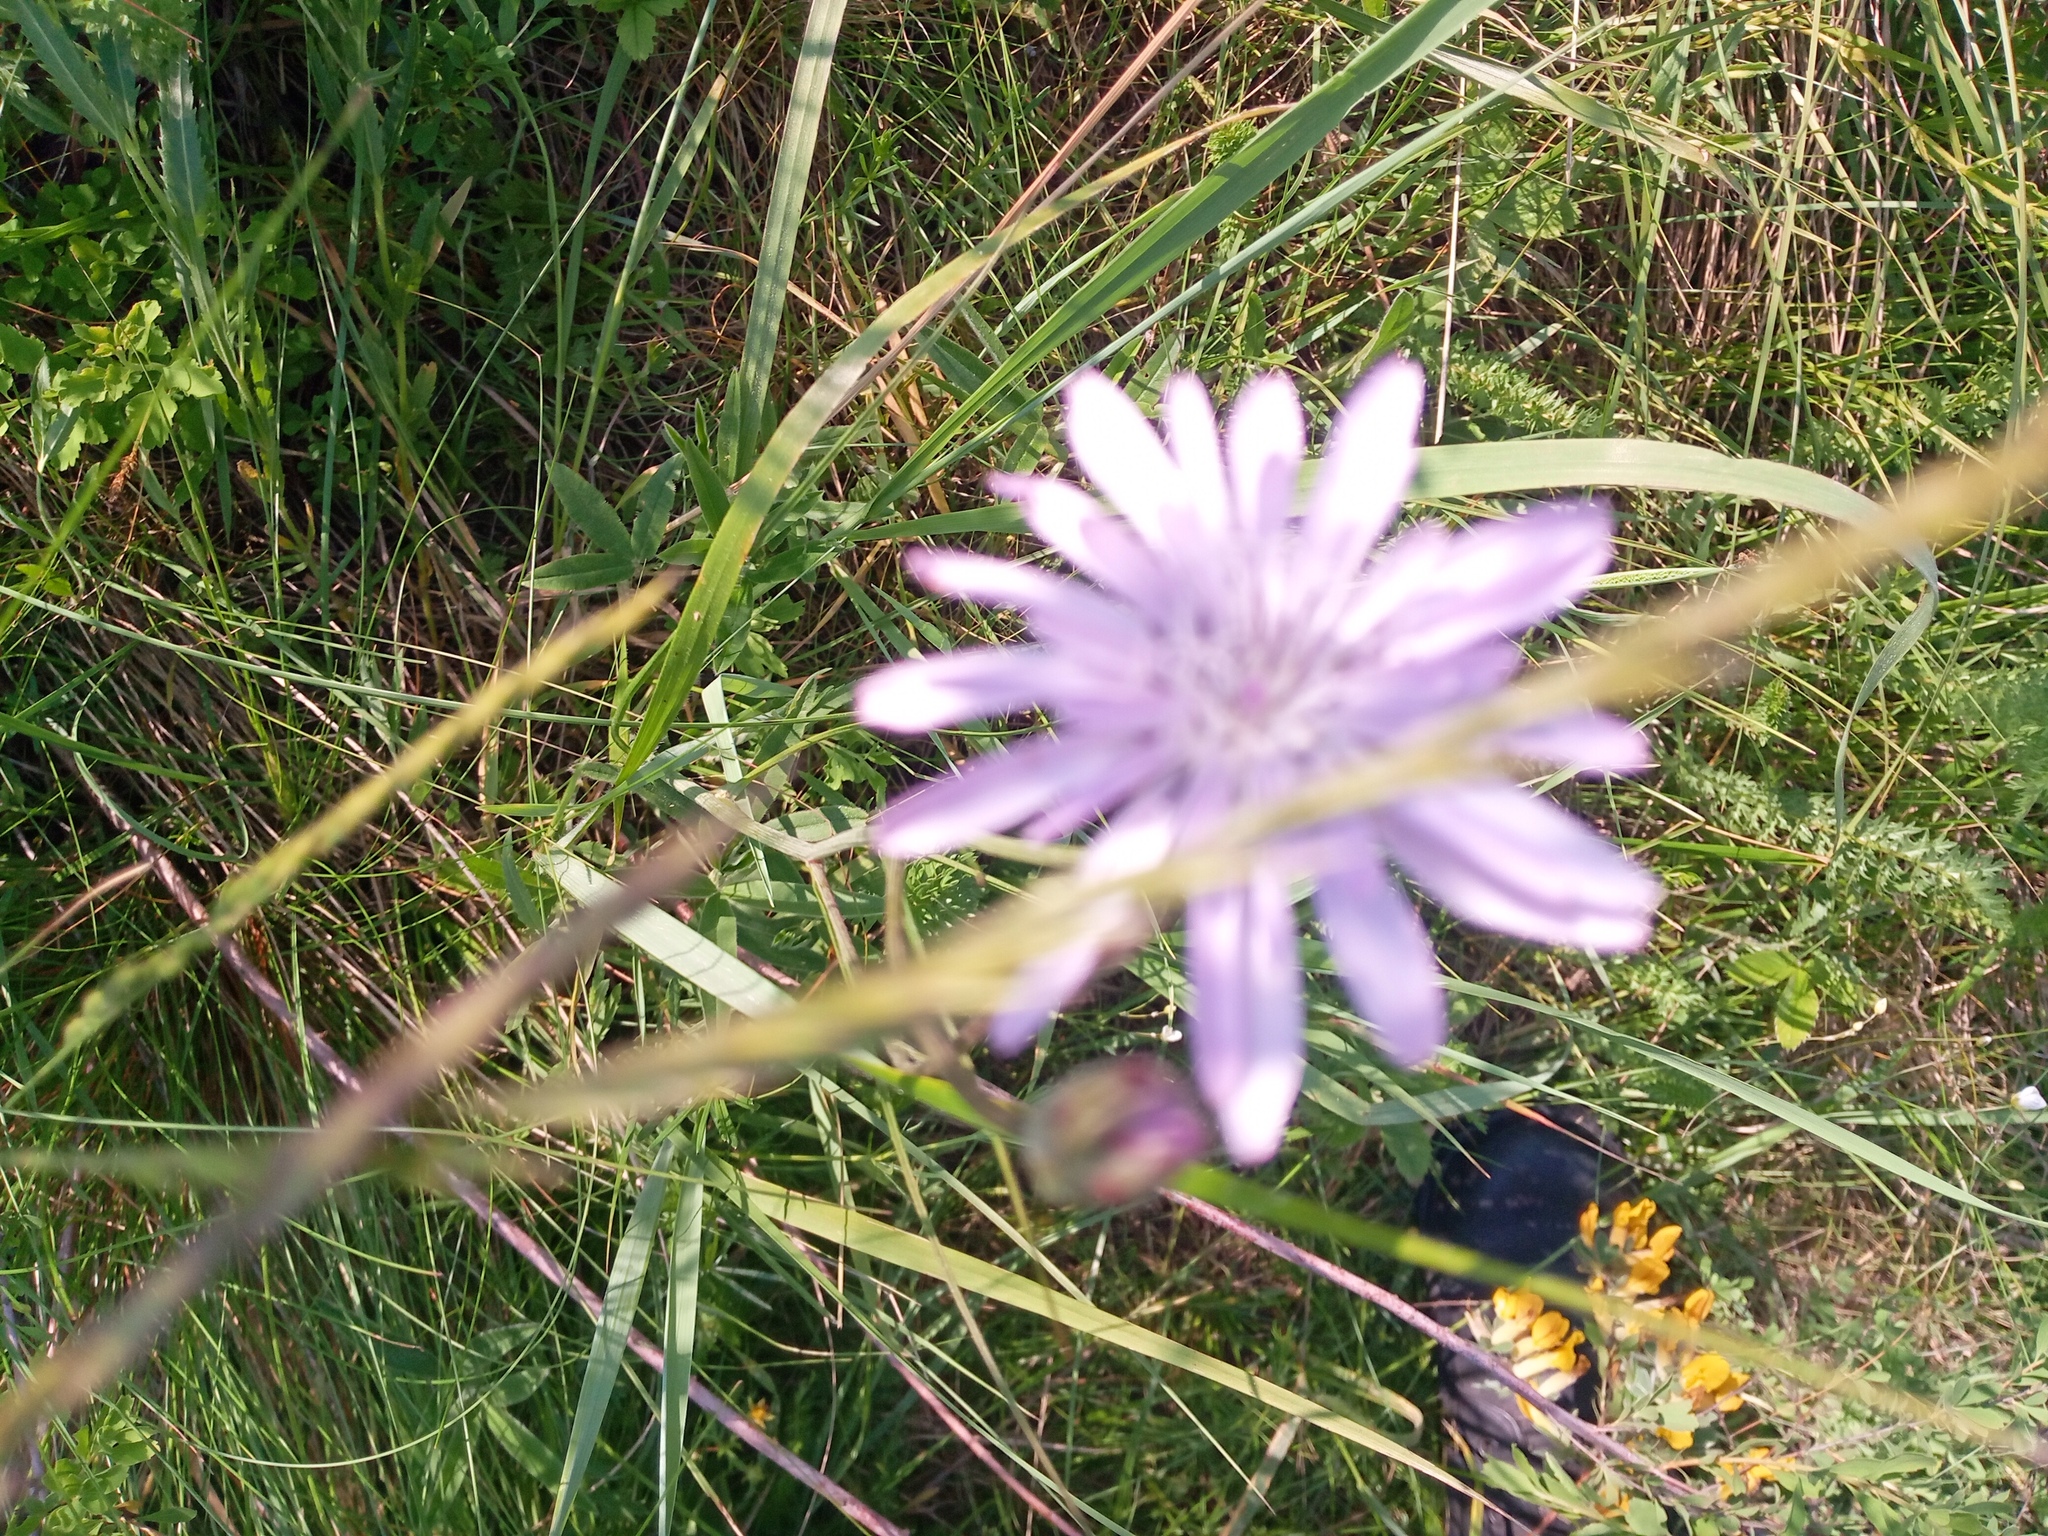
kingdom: Plantae
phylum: Tracheophyta
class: Magnoliopsida
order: Asterales
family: Asteraceae
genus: Scorzonera
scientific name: Scorzonera purpurea
